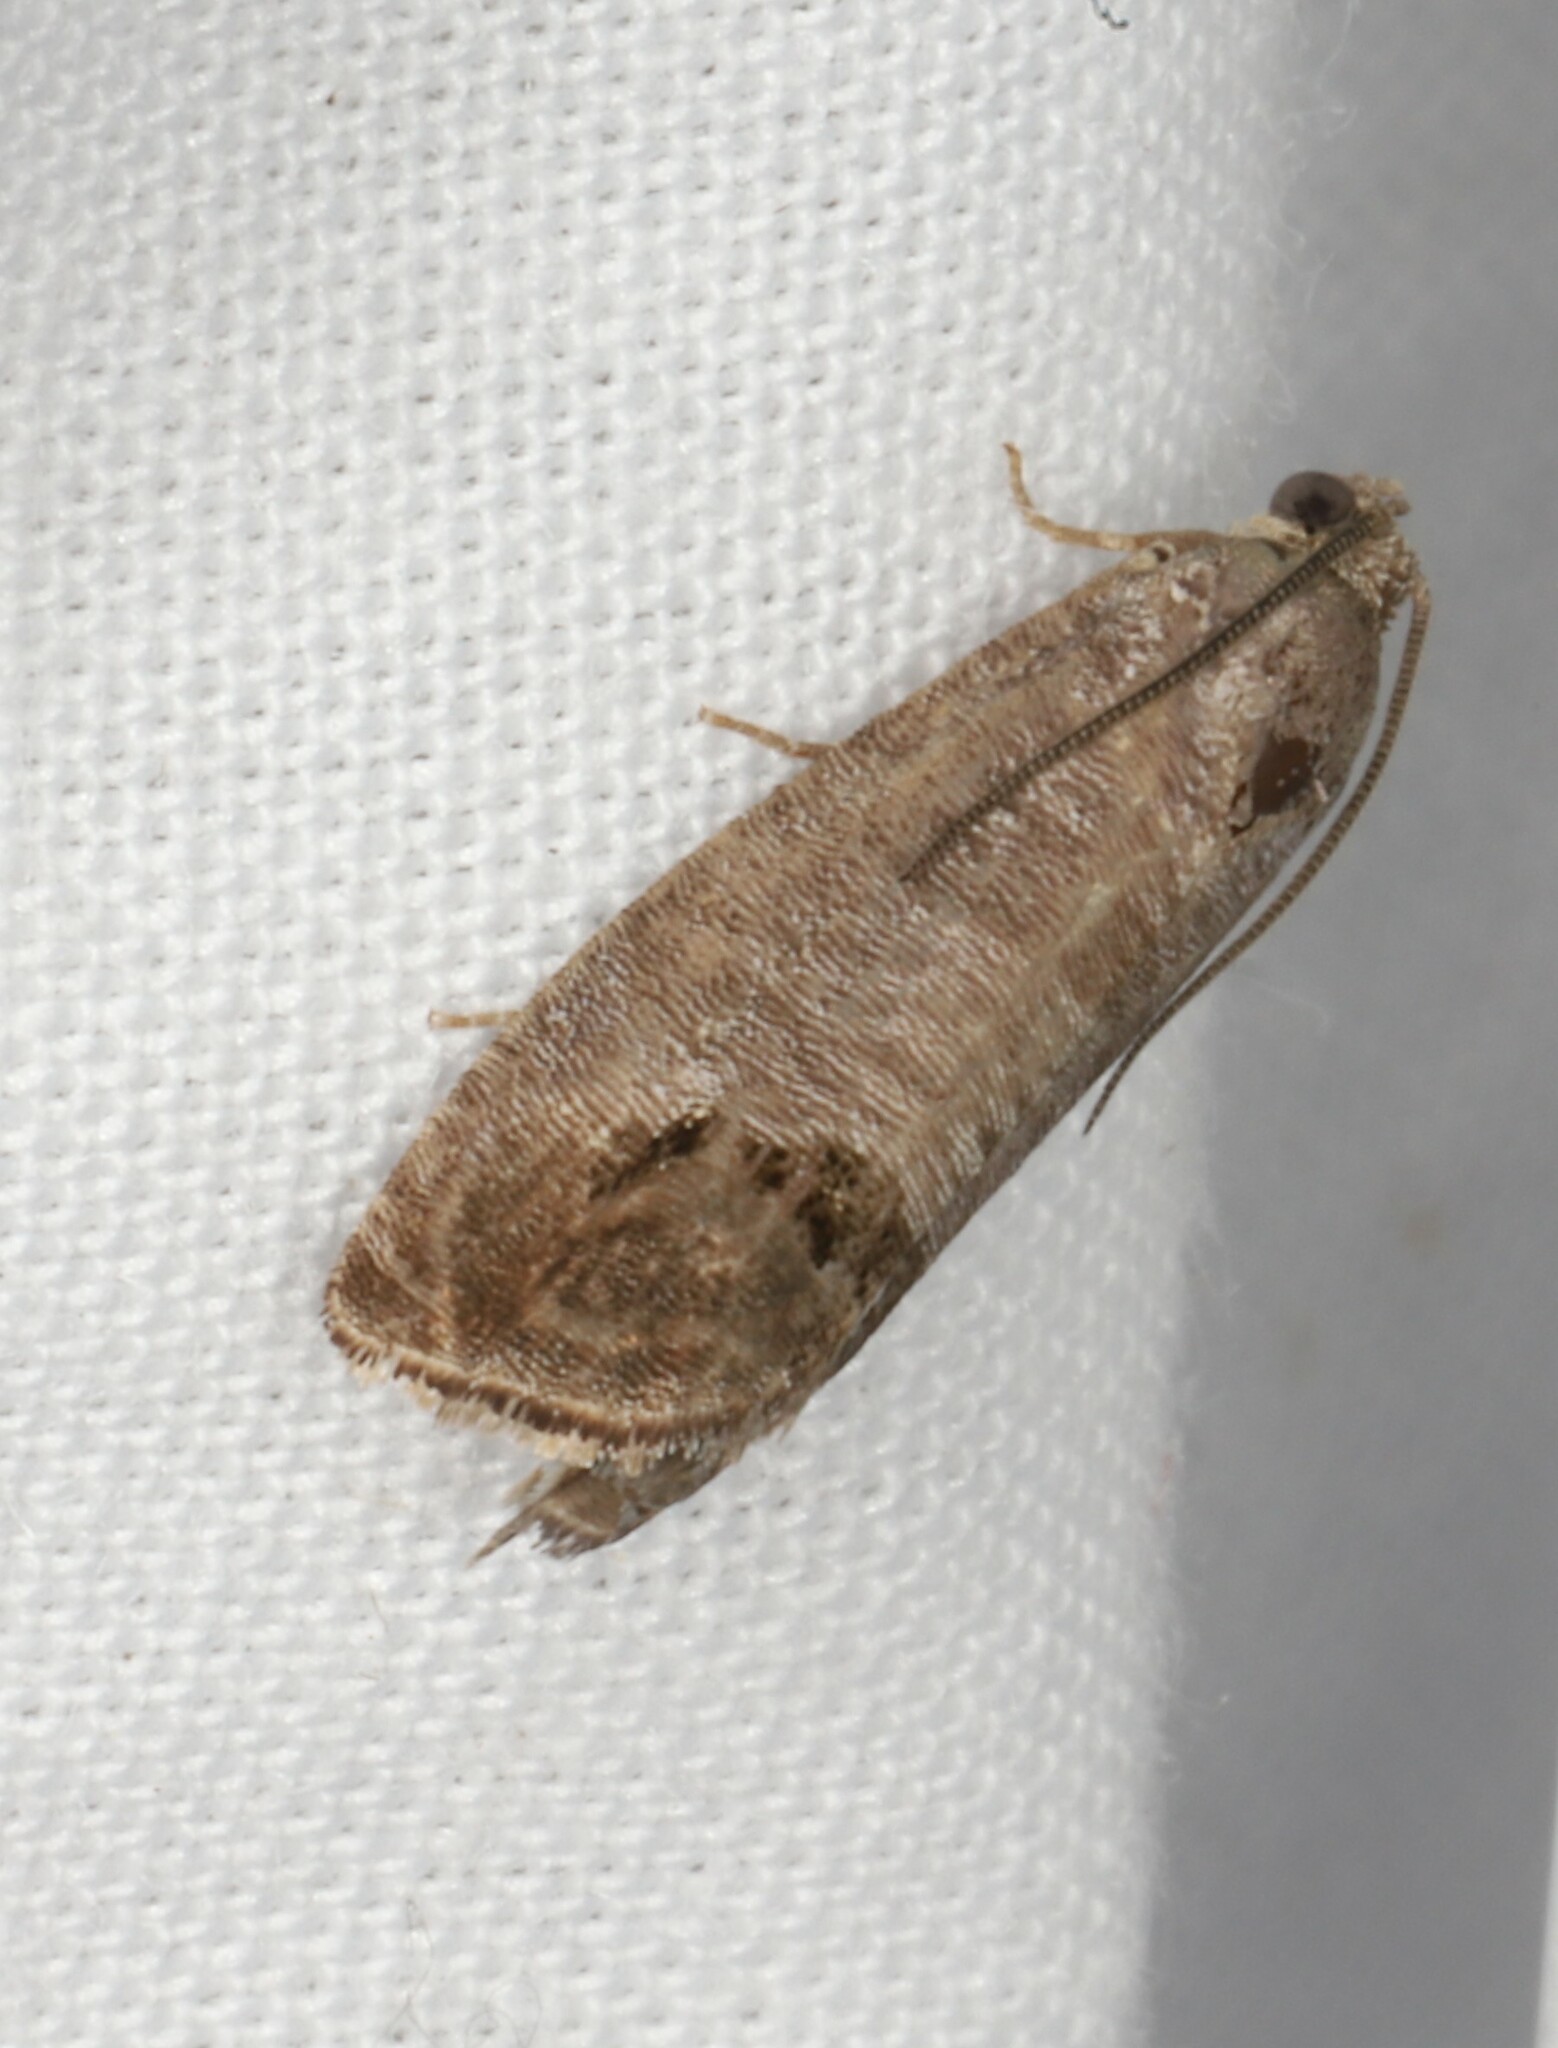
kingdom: Animalia
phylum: Arthropoda
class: Insecta
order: Lepidoptera
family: Tortricidae
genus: Cydia
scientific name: Cydia pomonella
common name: Codling moth
